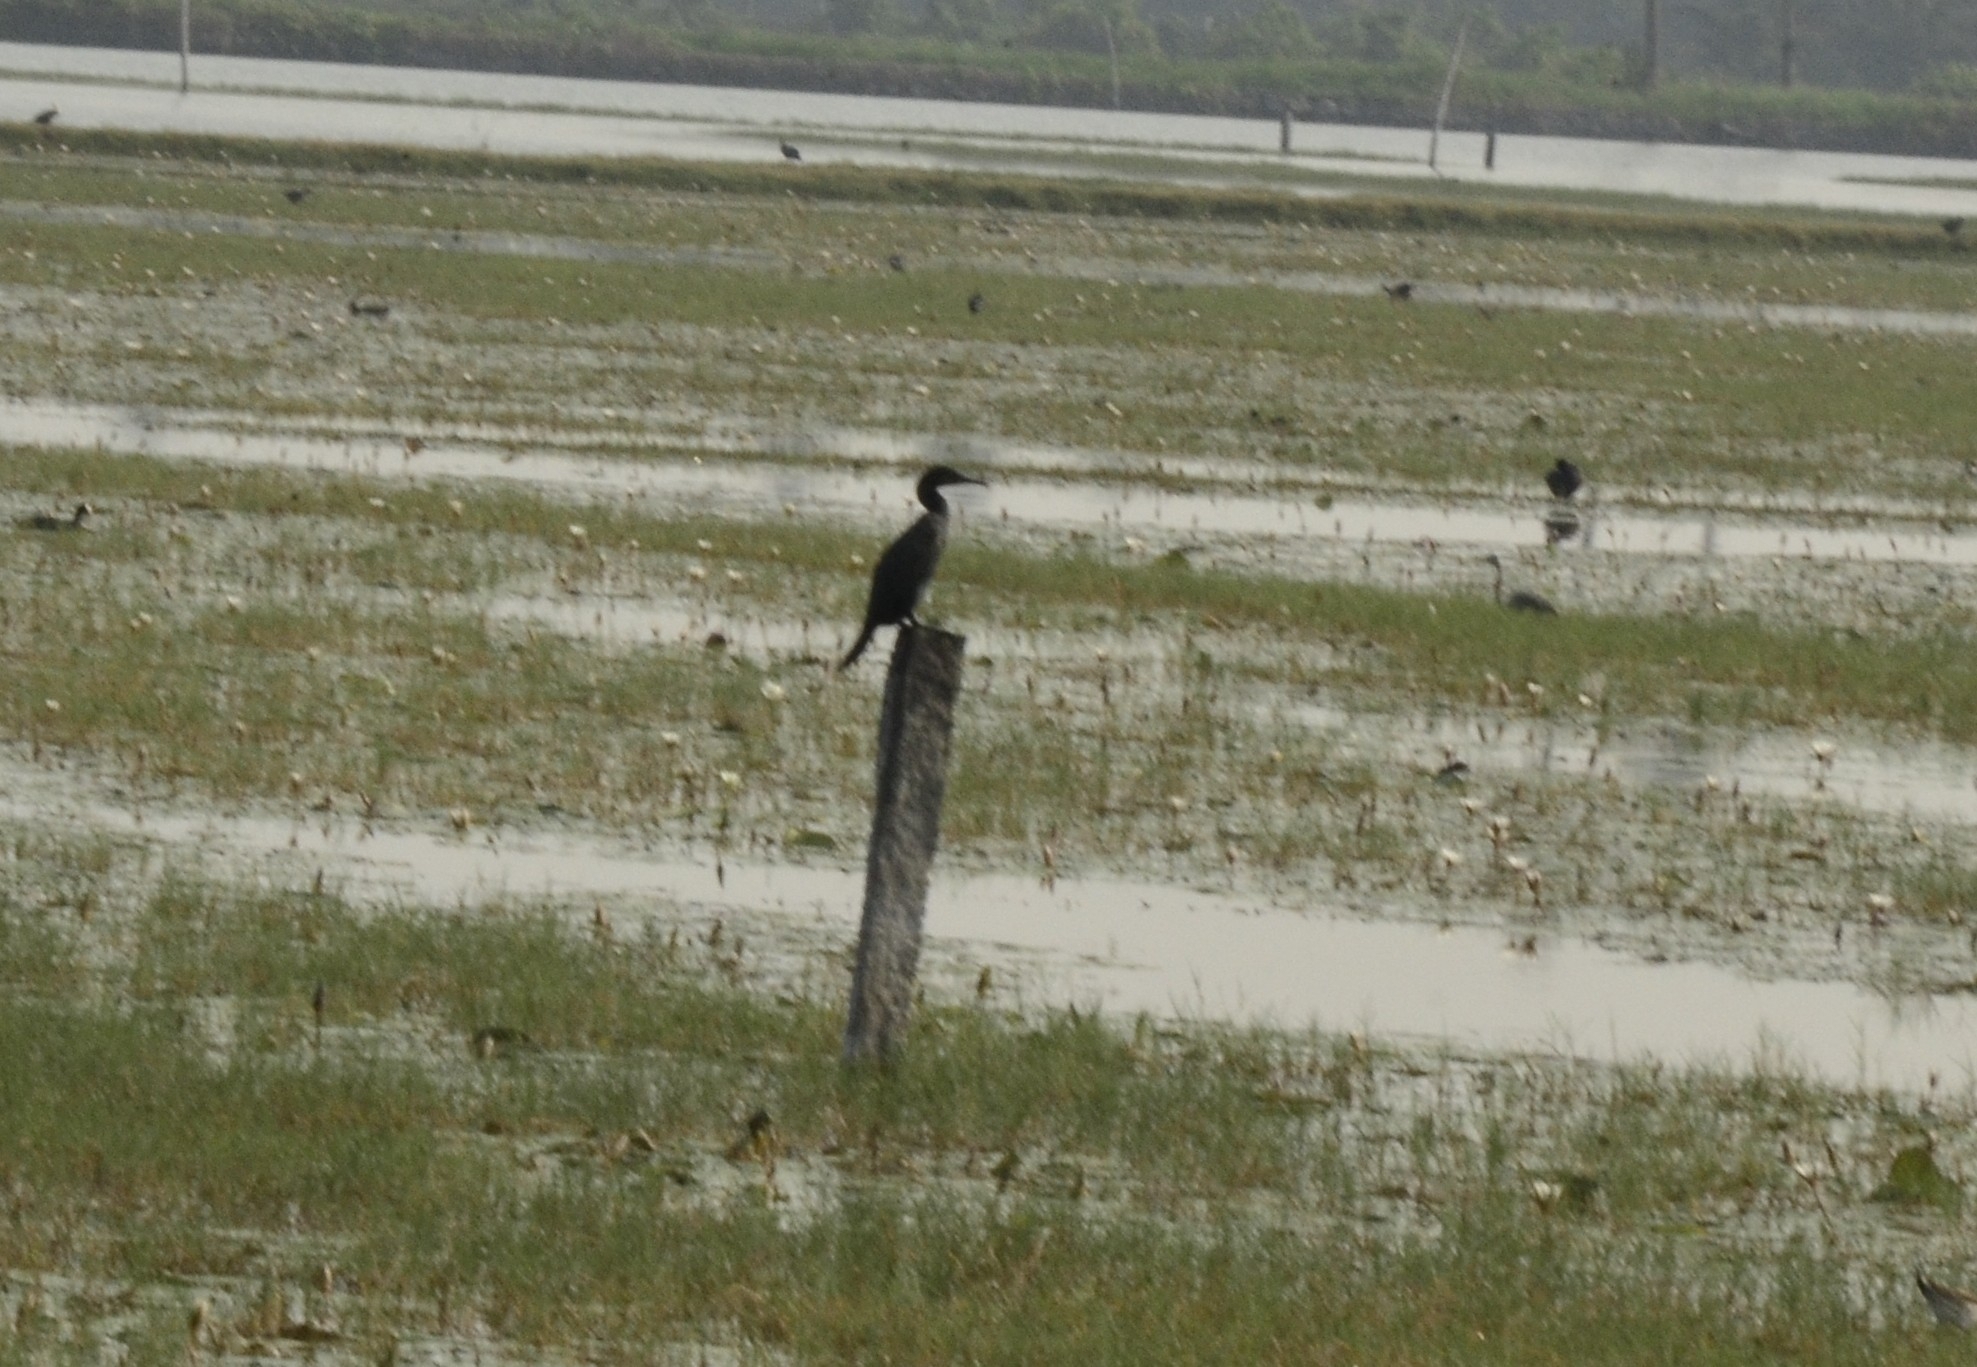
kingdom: Animalia
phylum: Chordata
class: Aves
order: Suliformes
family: Phalacrocoracidae
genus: Phalacrocorax
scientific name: Phalacrocorax fuscicollis
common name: Indian cormorant
